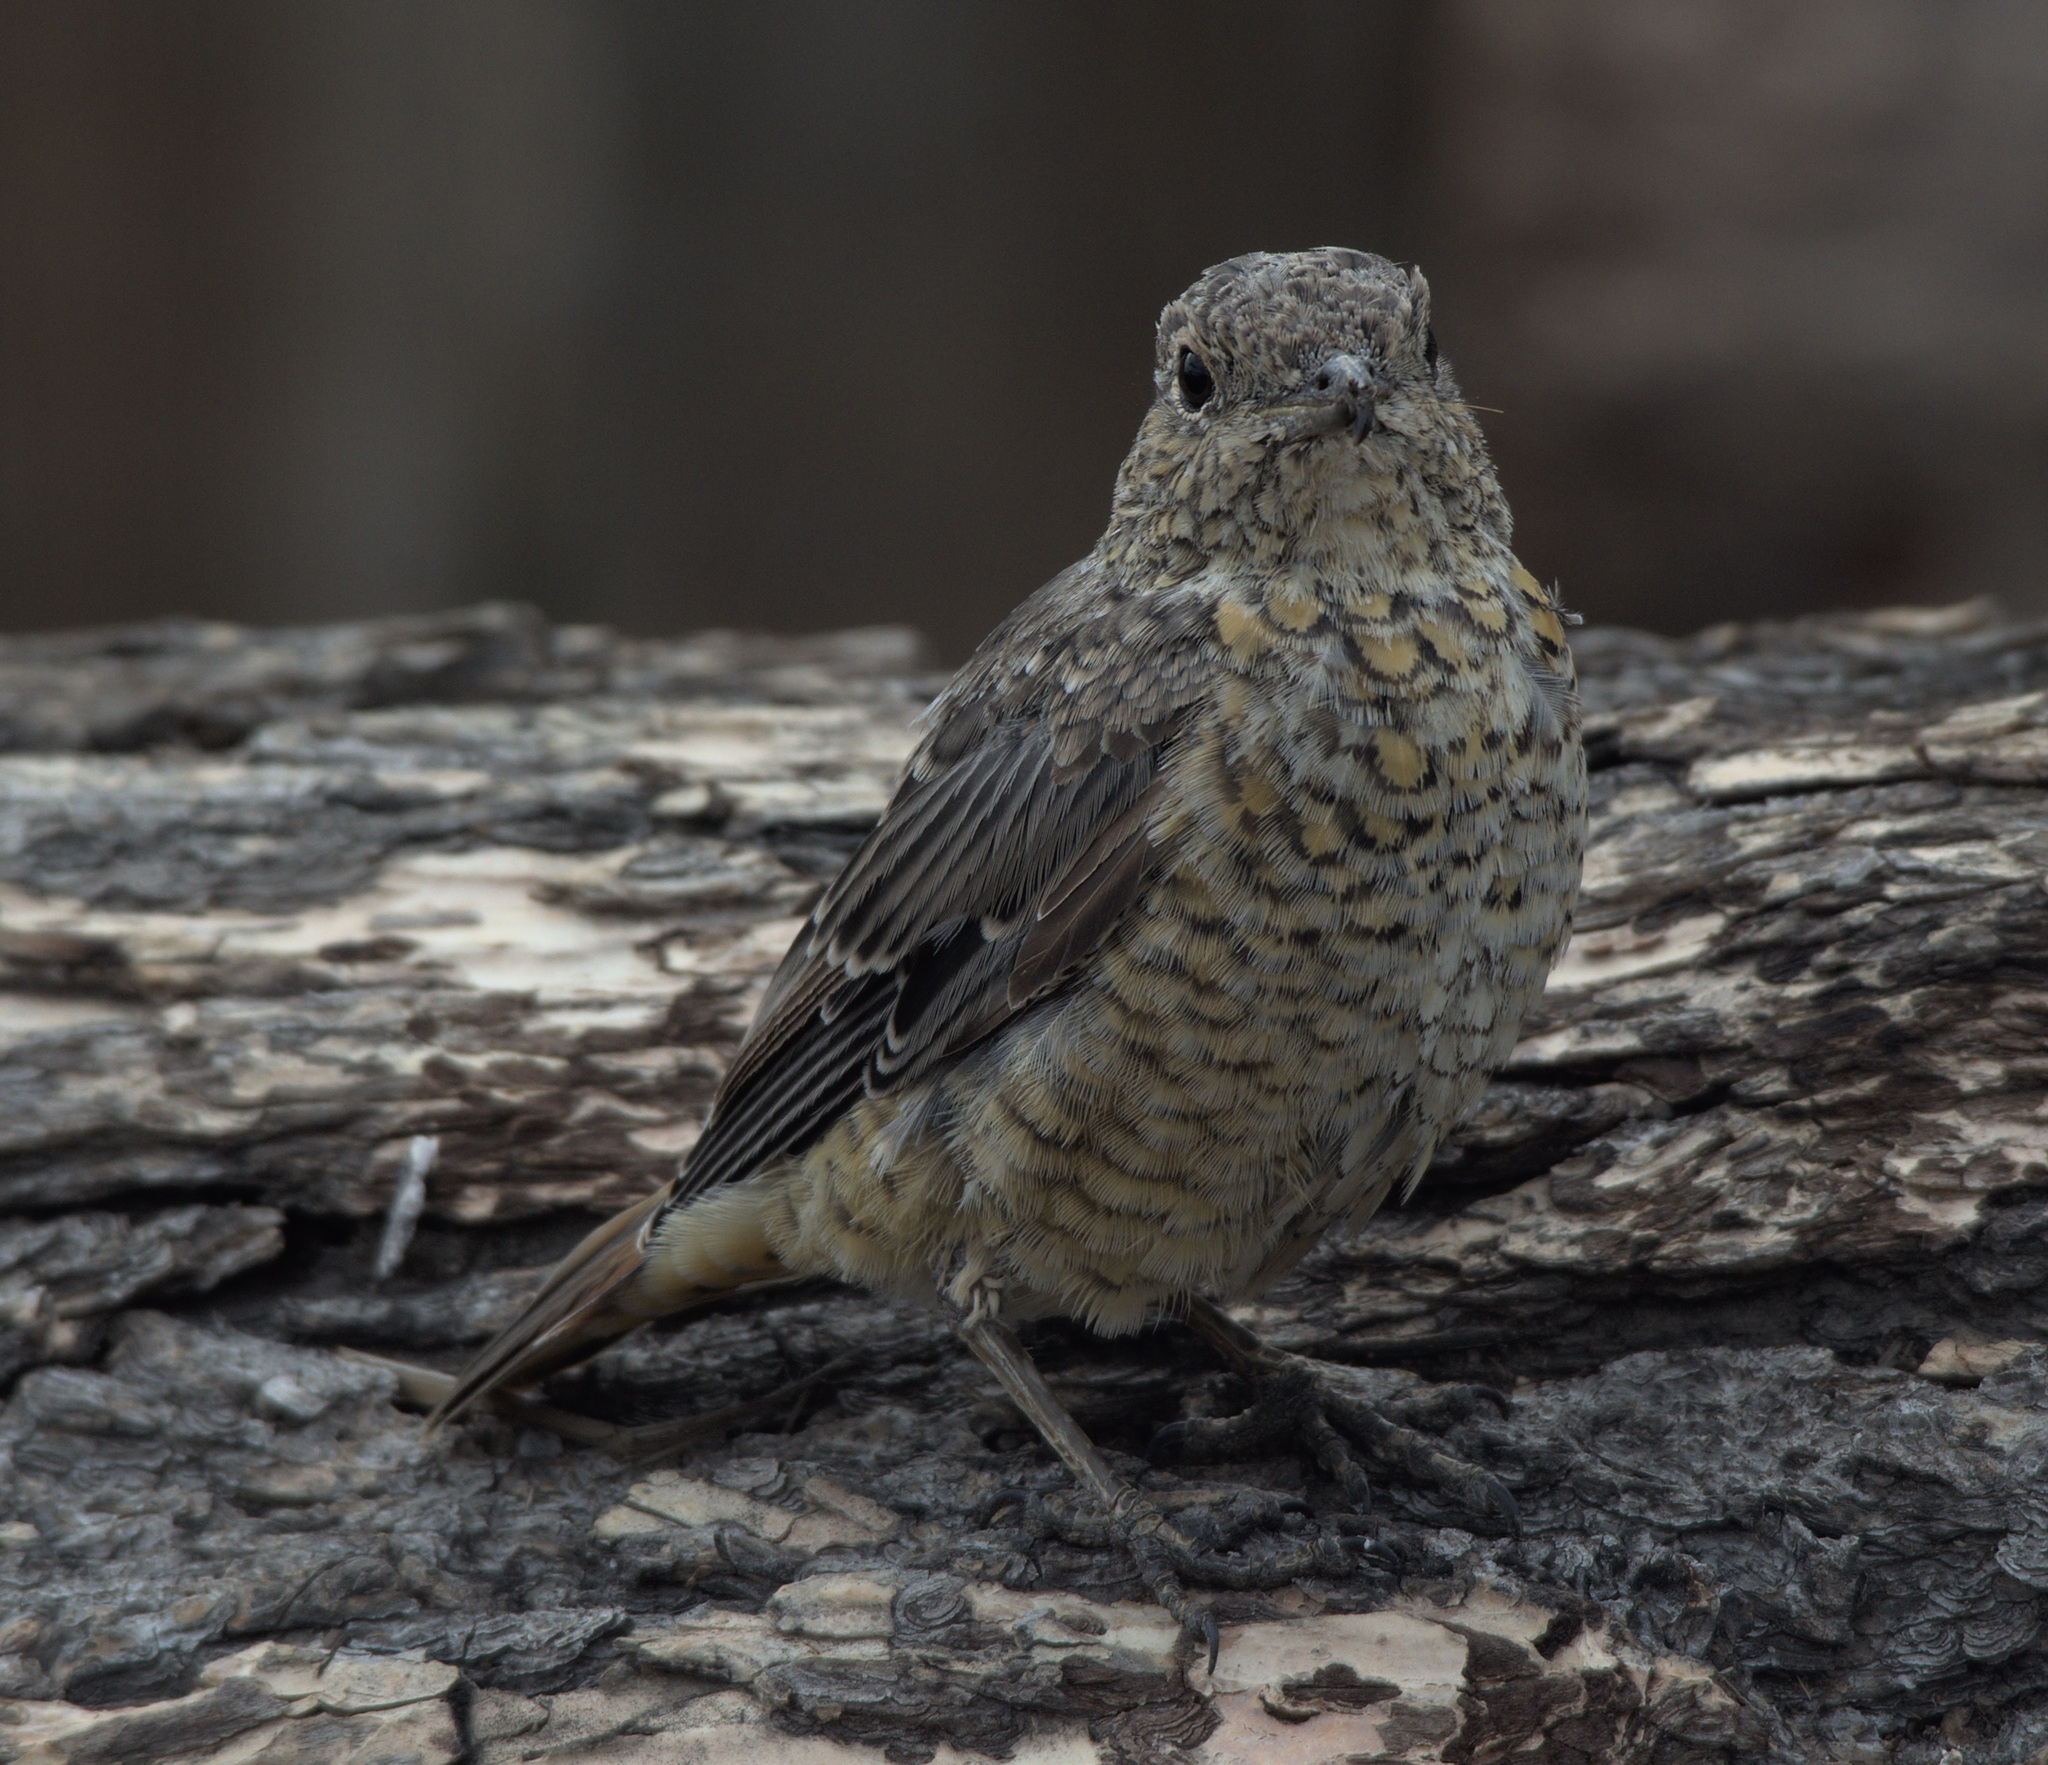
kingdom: Animalia
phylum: Chordata
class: Aves
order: Passeriformes
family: Muscicapidae
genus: Monticola
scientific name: Monticola saxatilis
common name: Rufous-tailed rock thrush
